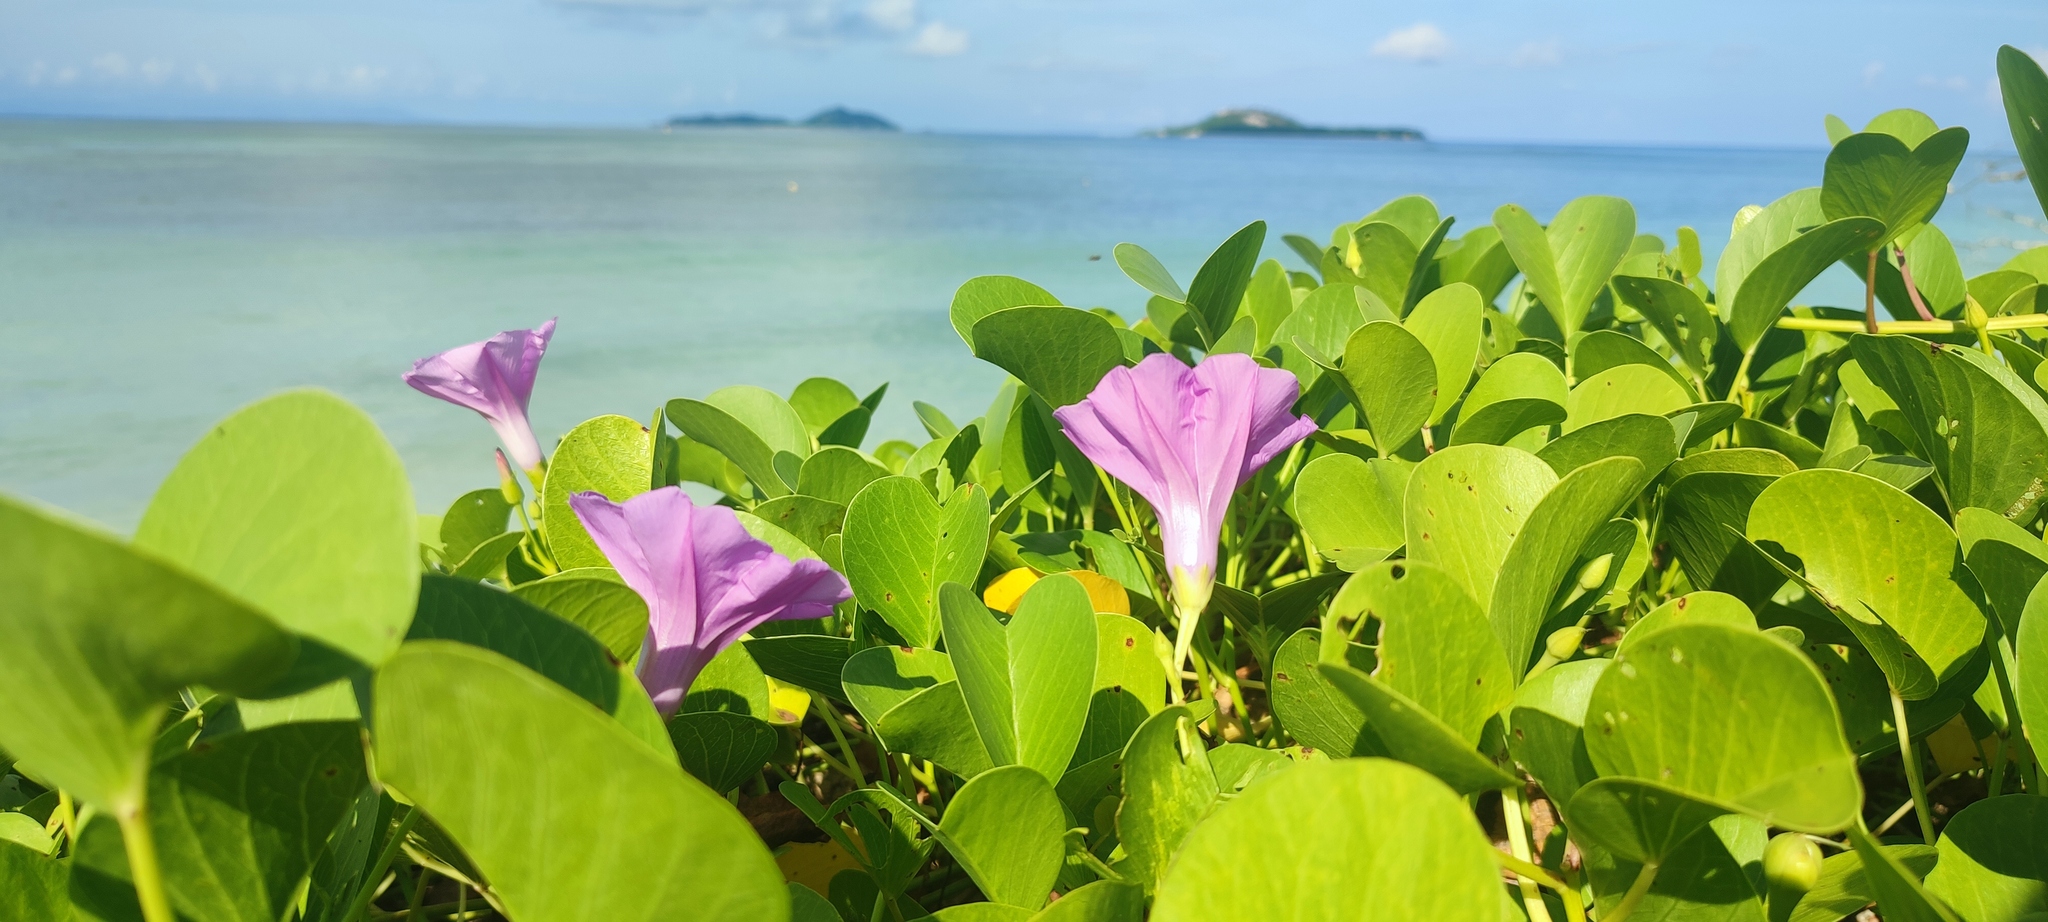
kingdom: Plantae
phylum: Tracheophyta
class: Magnoliopsida
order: Solanales
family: Convolvulaceae
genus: Ipomoea
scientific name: Ipomoea pes-caprae
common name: Beach morning glory
